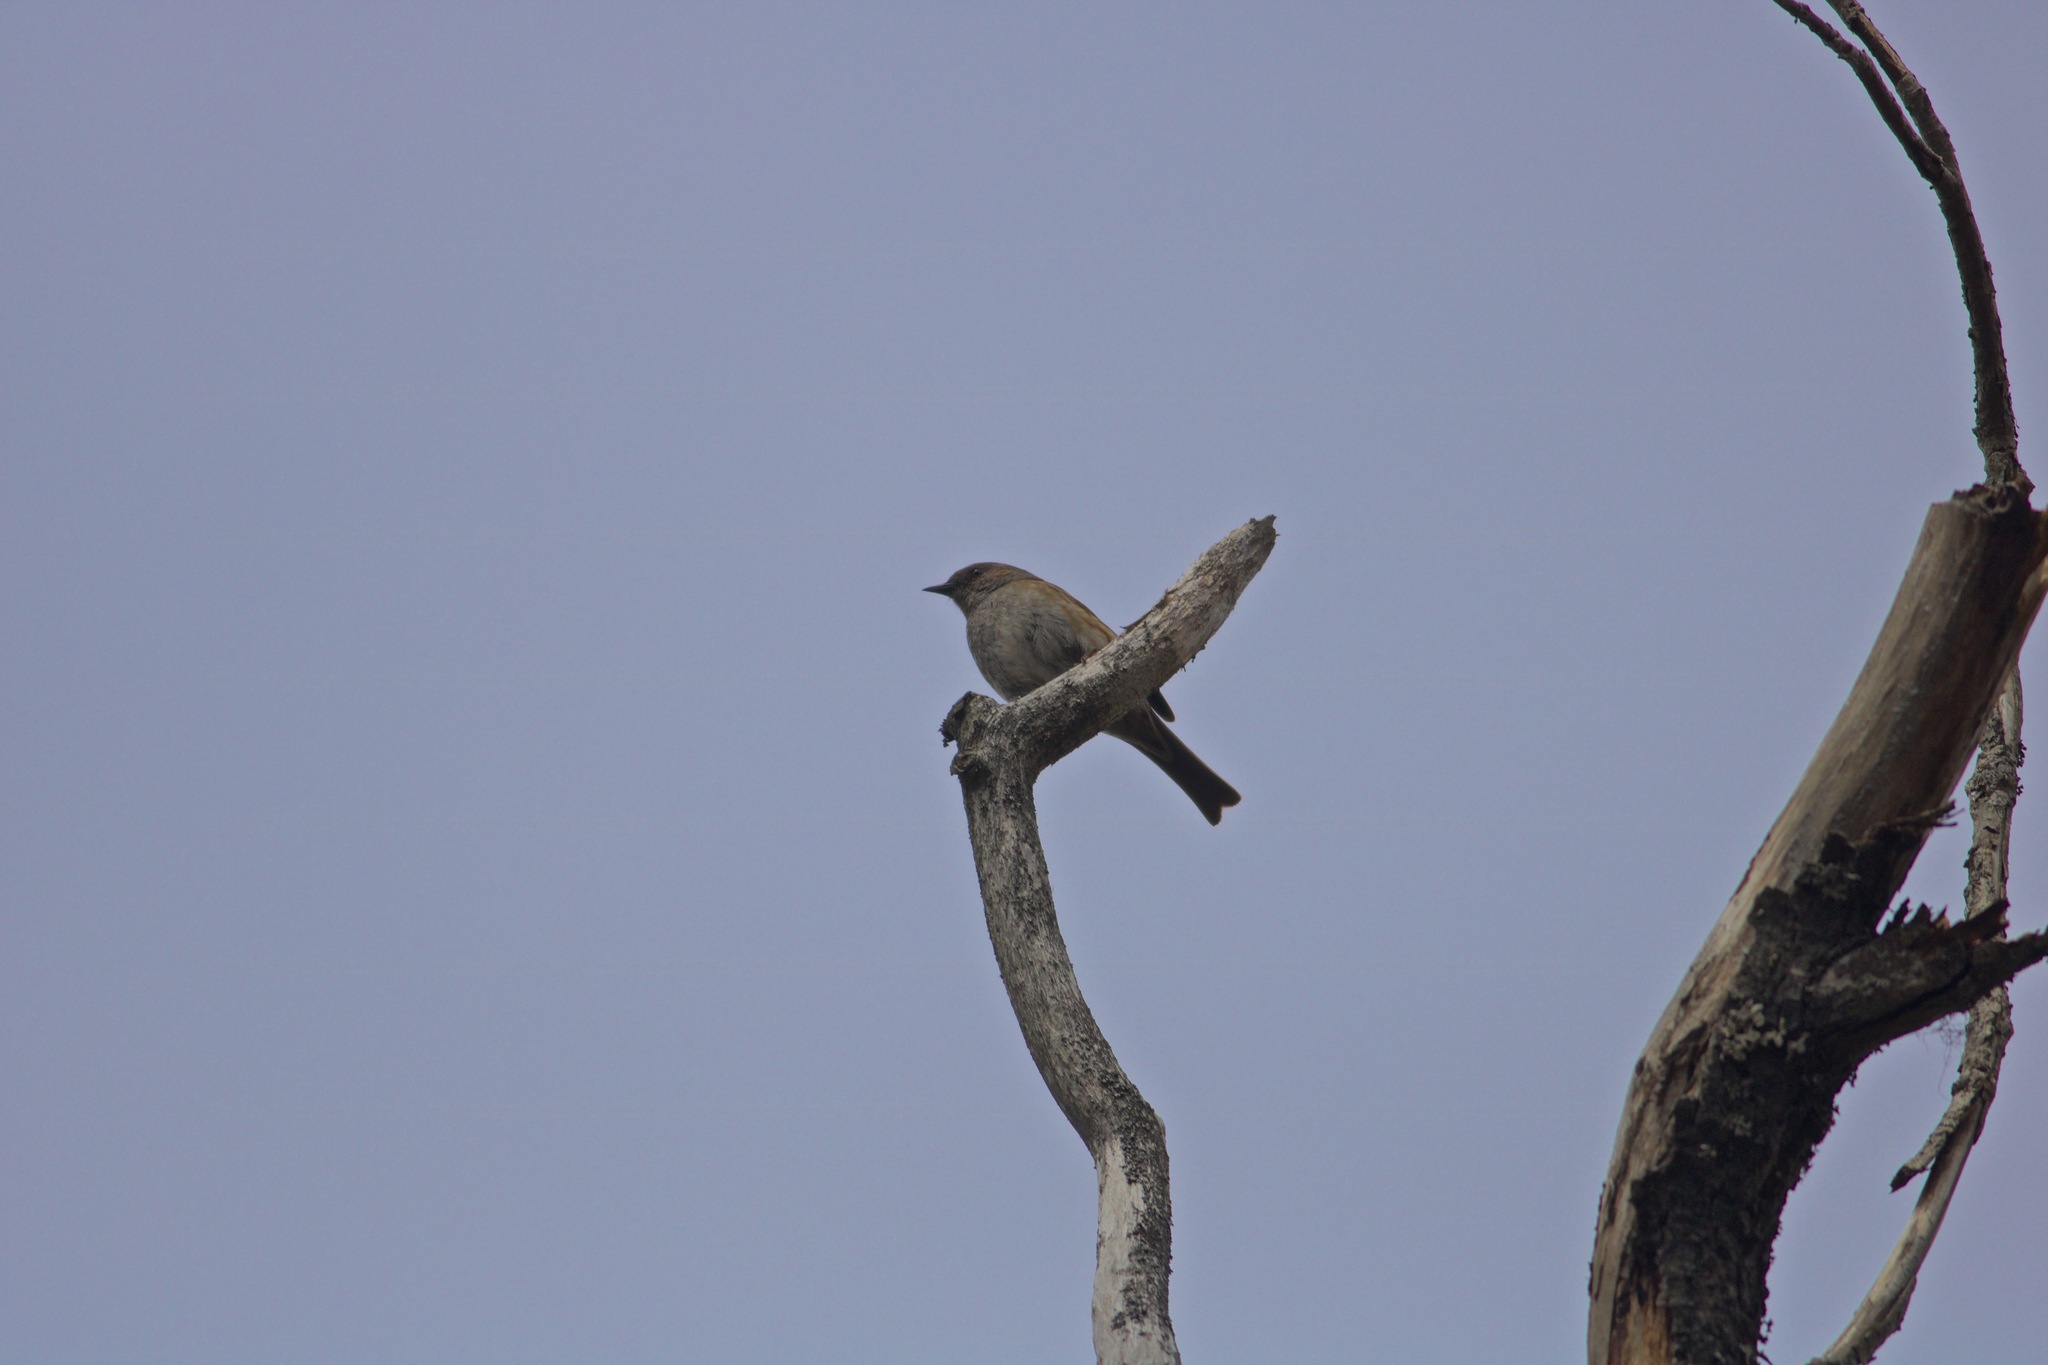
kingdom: Animalia
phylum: Chordata
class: Aves
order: Passeriformes
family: Prunellidae
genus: Prunella
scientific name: Prunella modularis
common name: Dunnock
